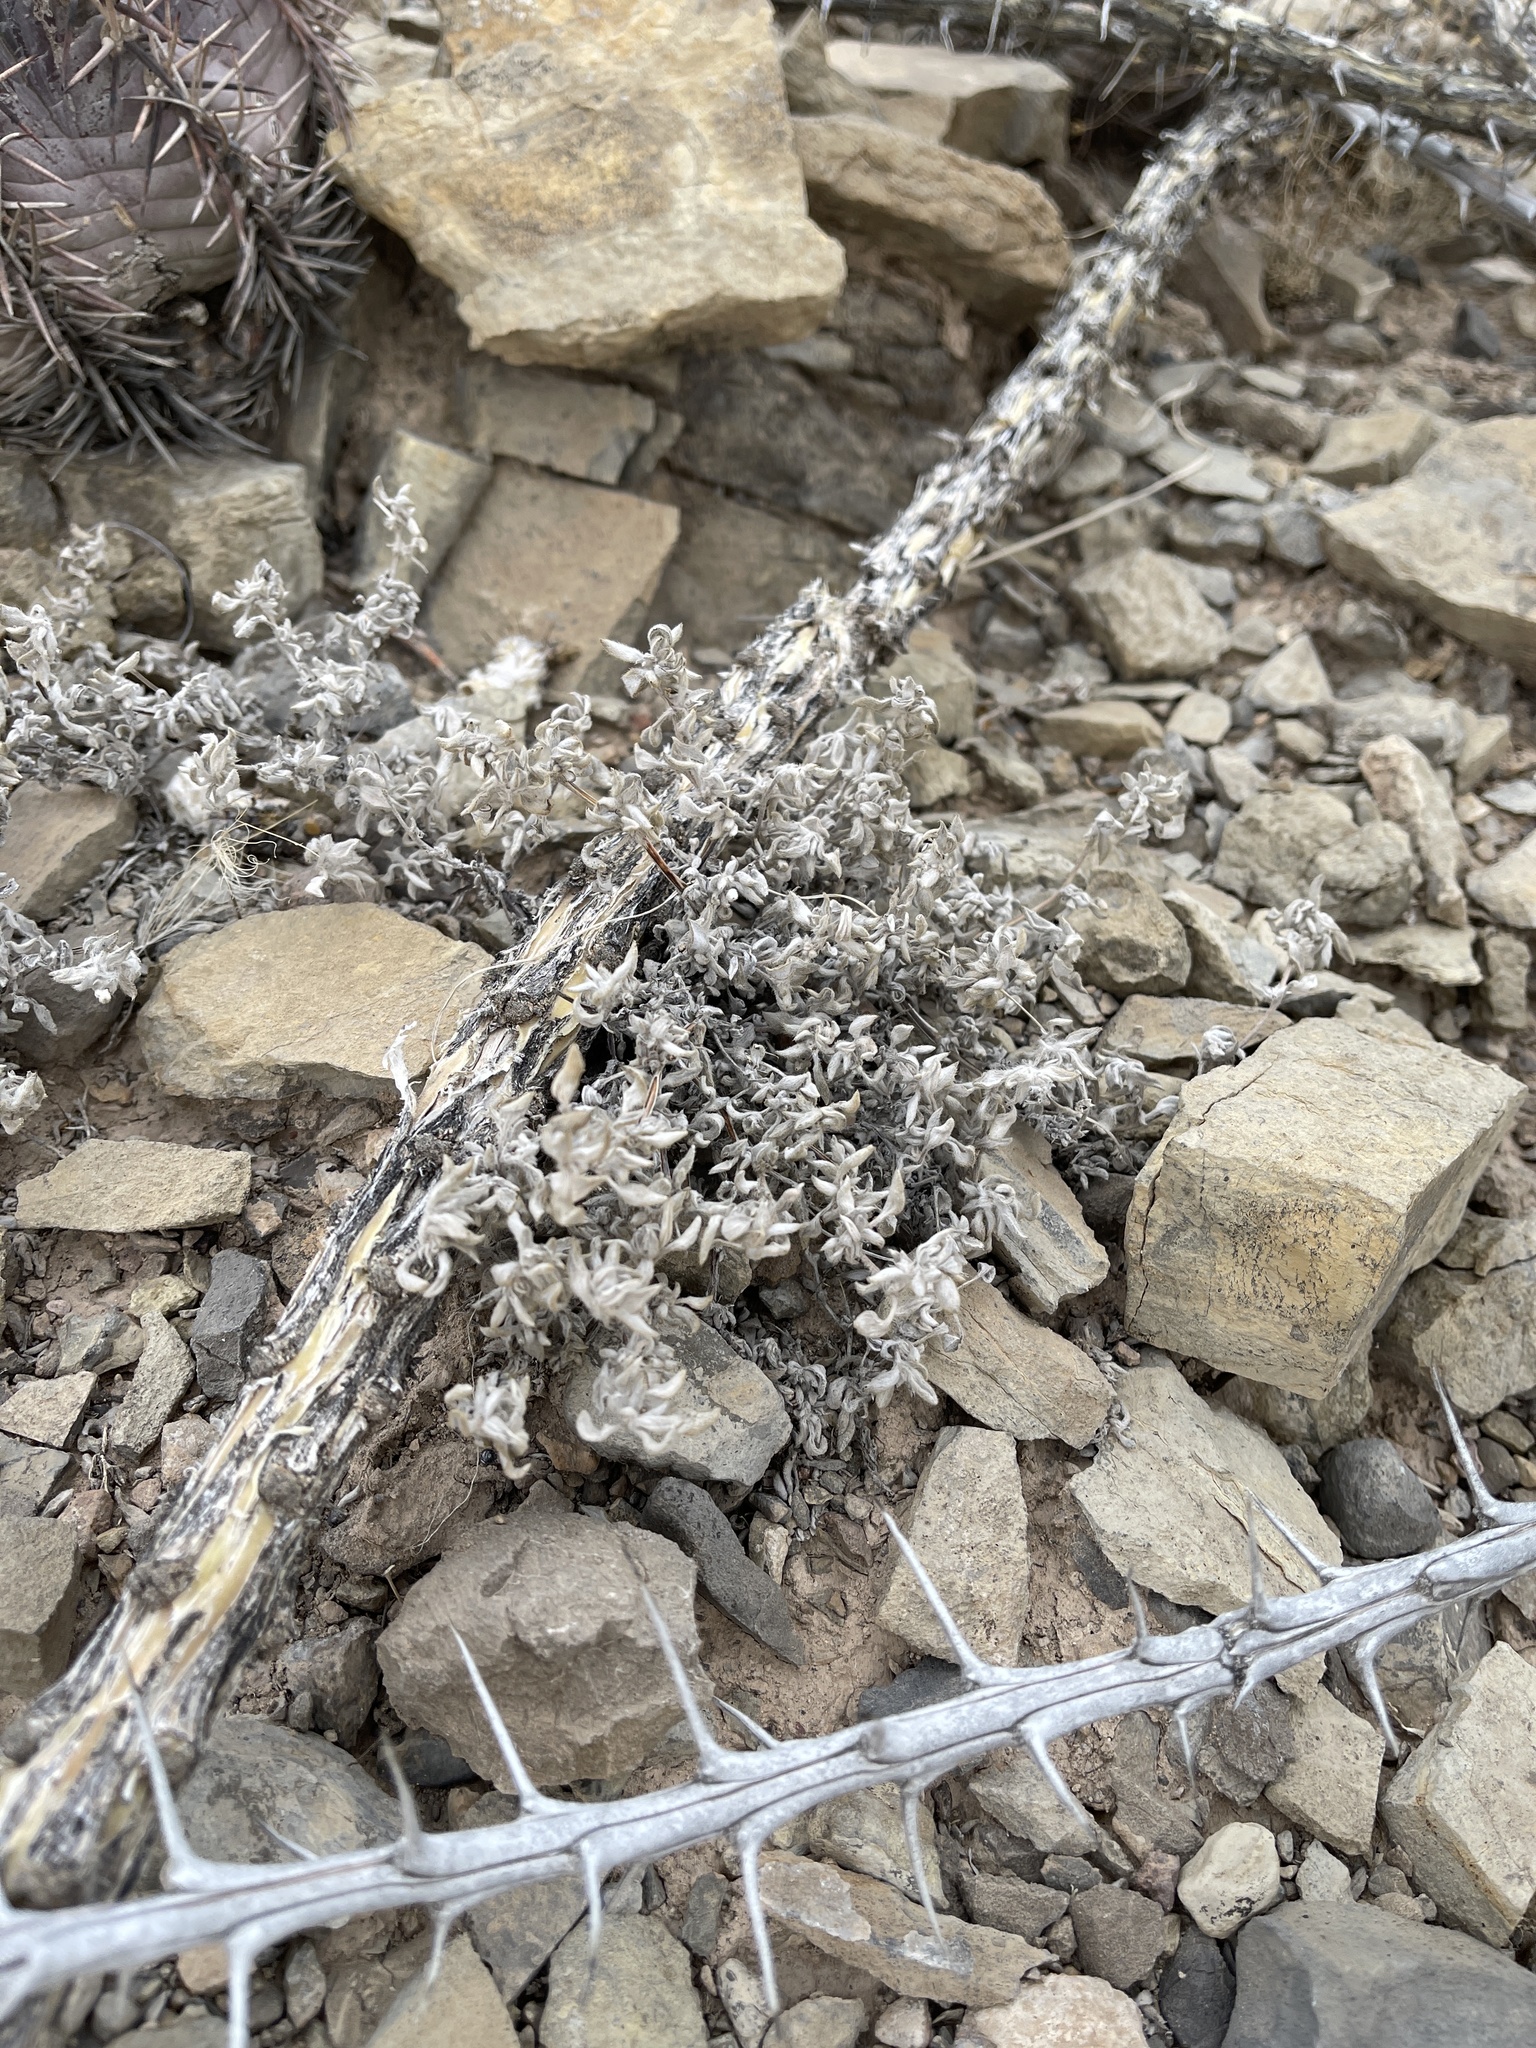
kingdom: Plantae
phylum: Tracheophyta
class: Magnoliopsida
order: Boraginales
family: Ehretiaceae
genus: Tiquilia
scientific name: Tiquilia canescens
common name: Hairy tiquilia
